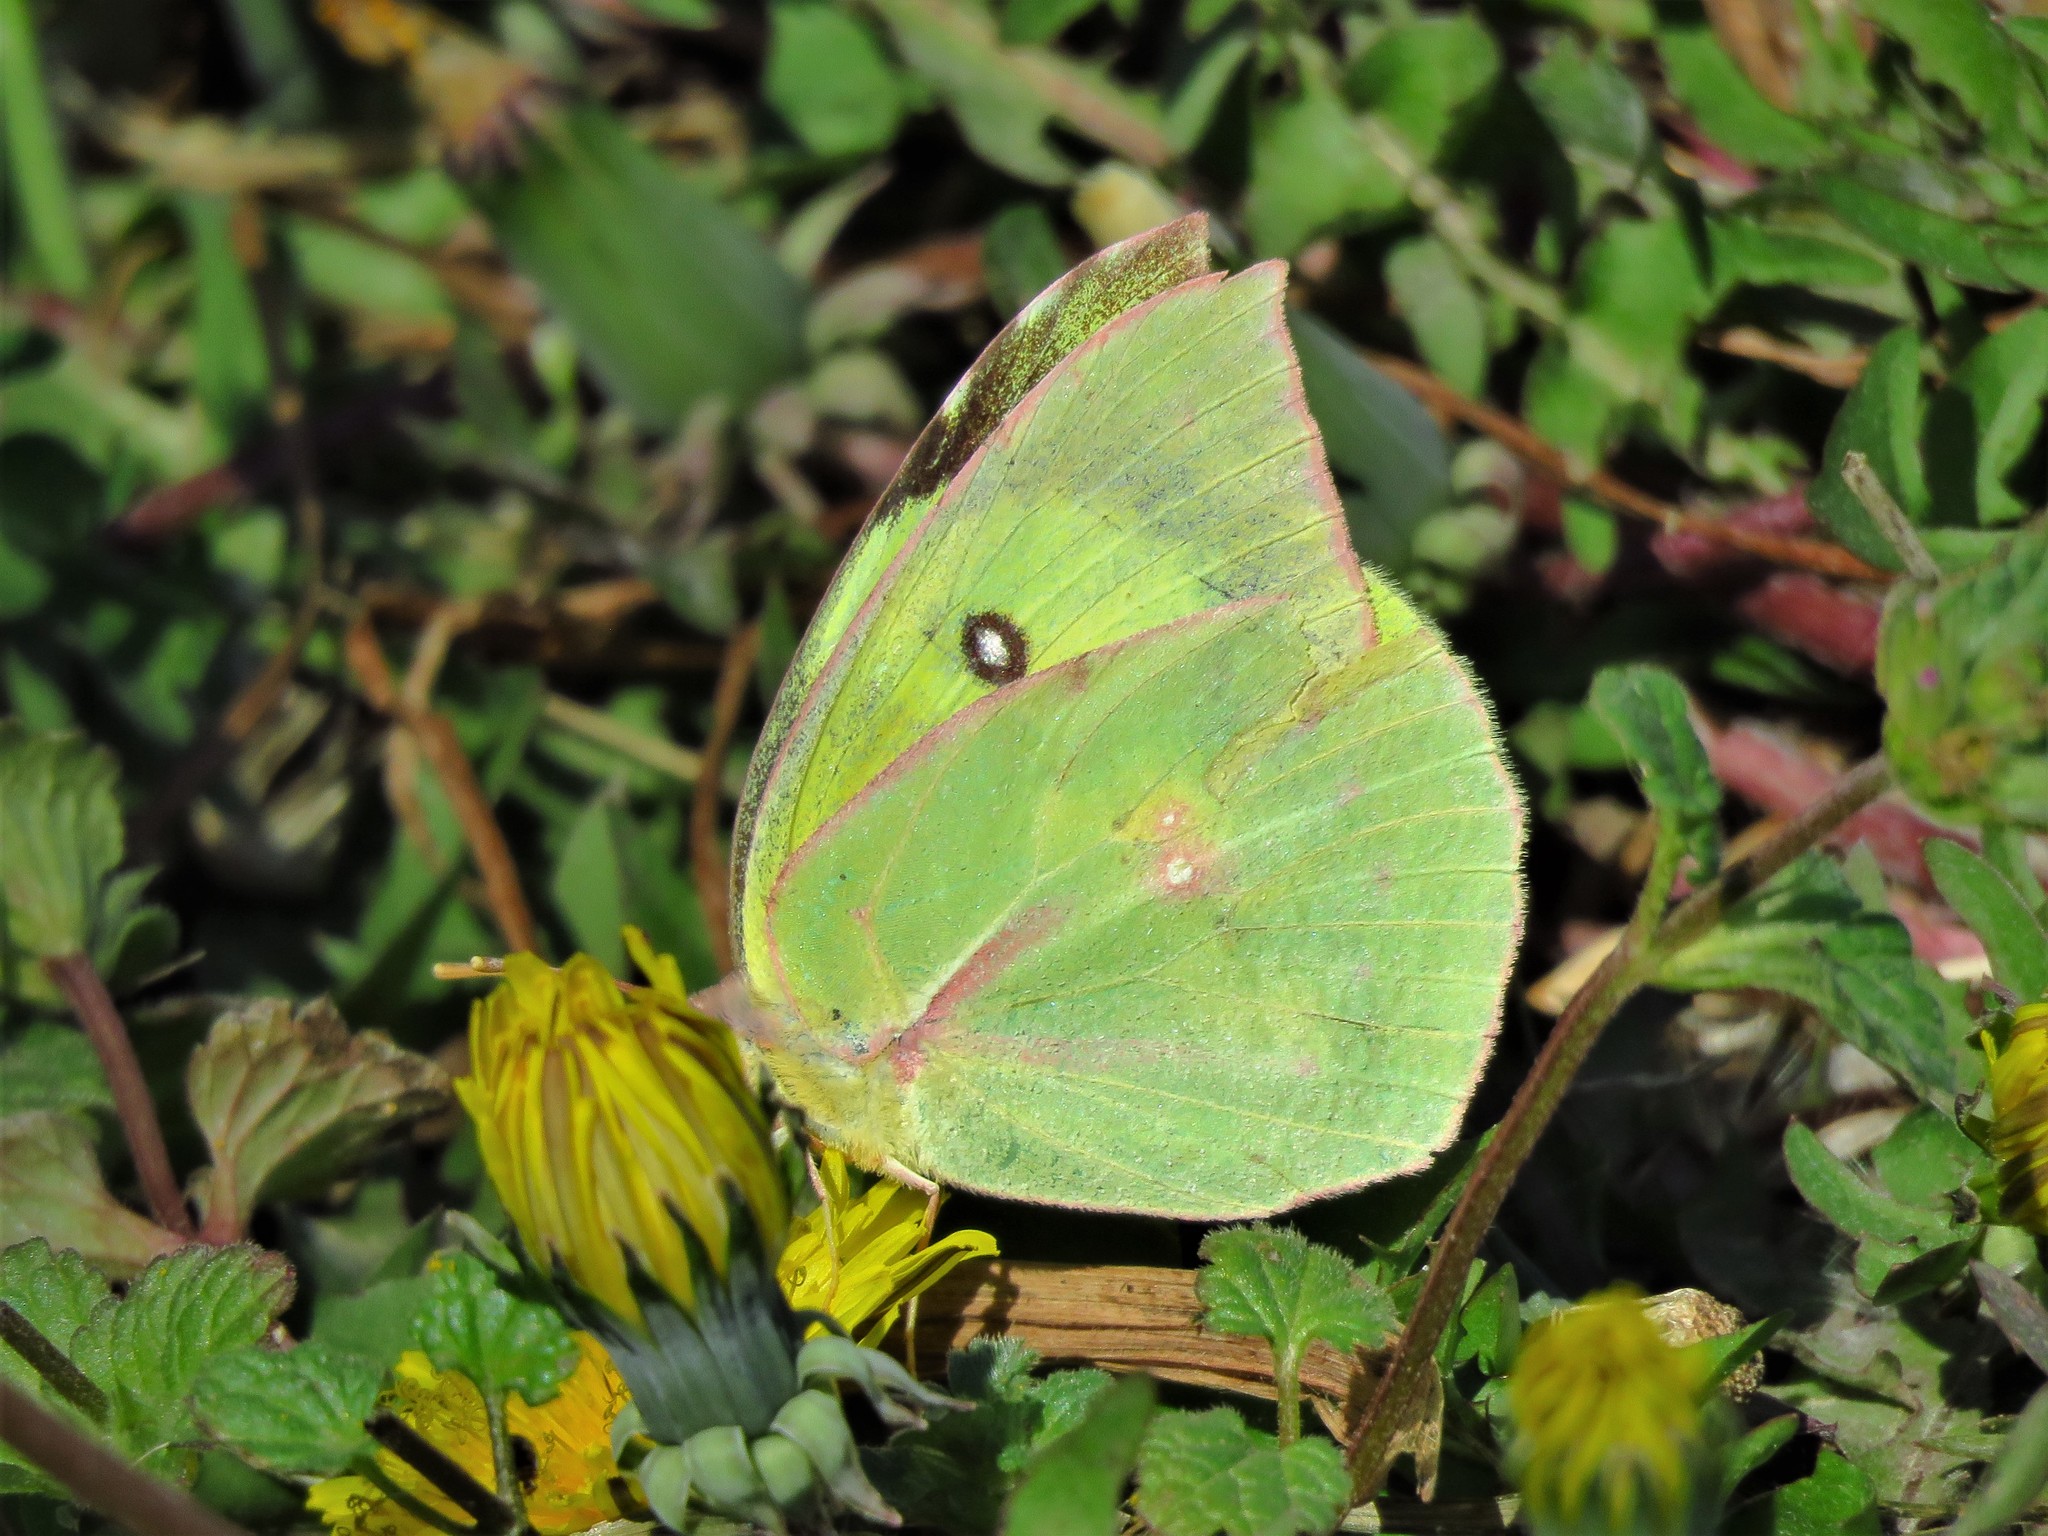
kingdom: Animalia
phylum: Arthropoda
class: Insecta
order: Lepidoptera
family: Pieridae
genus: Zerene
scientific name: Zerene cesonia
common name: Southern dogface
